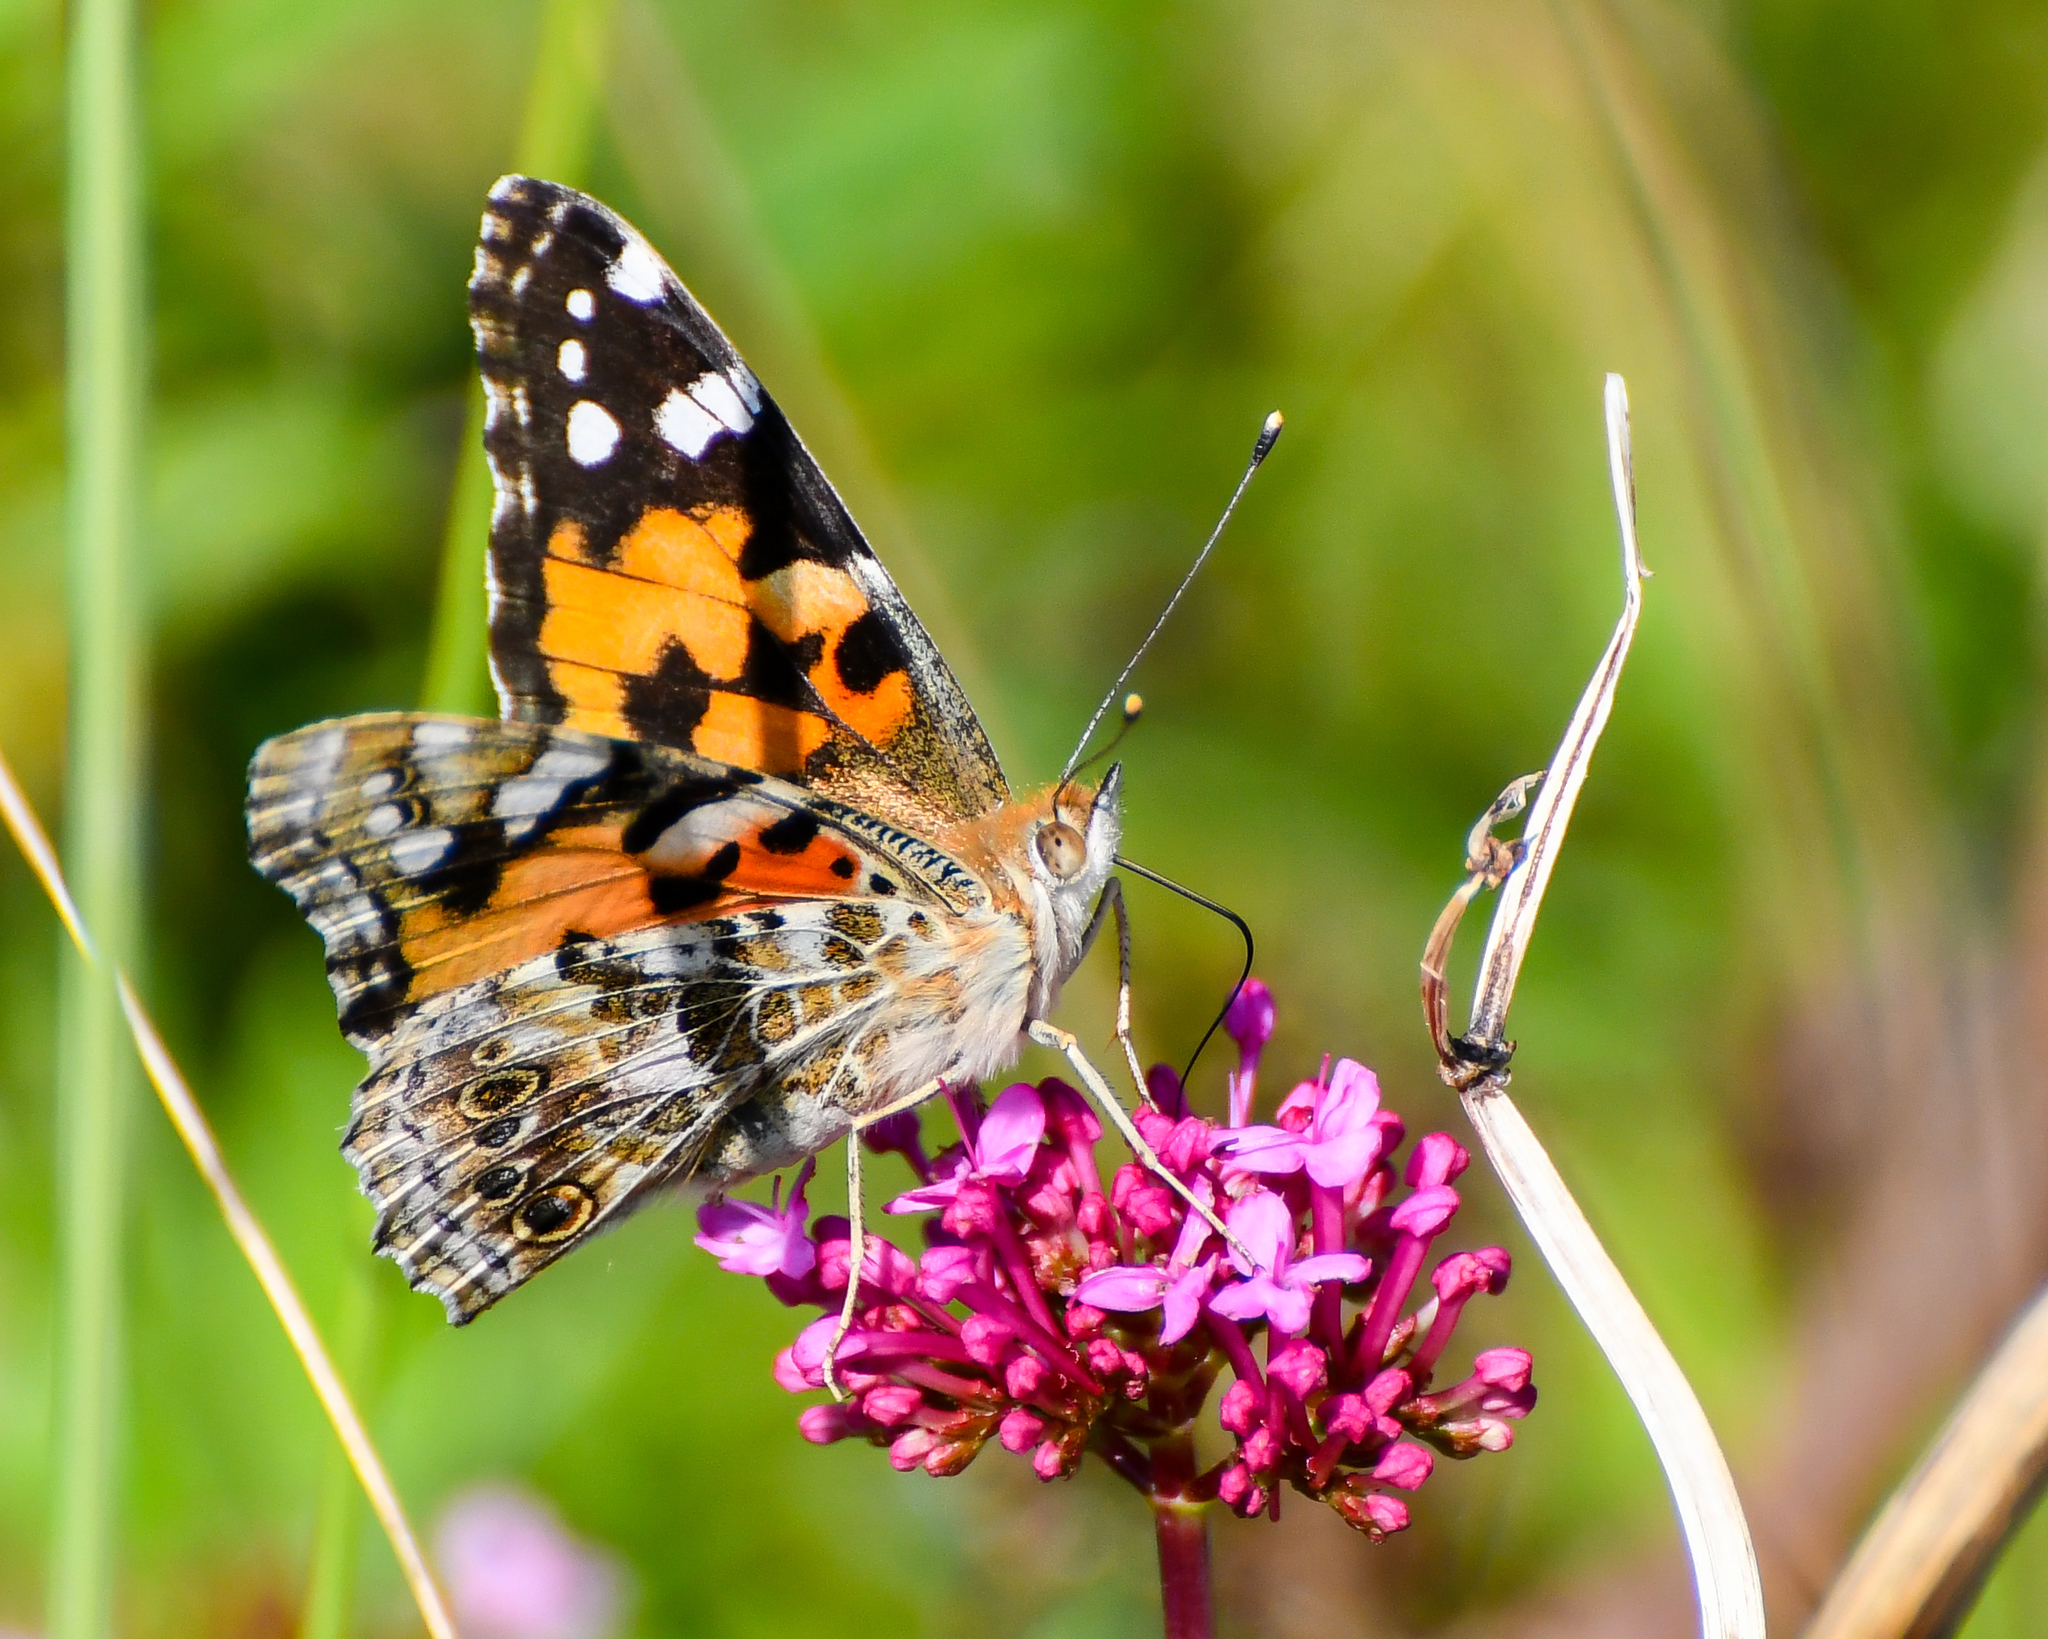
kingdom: Animalia
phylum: Arthropoda
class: Insecta
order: Lepidoptera
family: Nymphalidae
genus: Vanessa
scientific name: Vanessa cardui
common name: Painted lady
